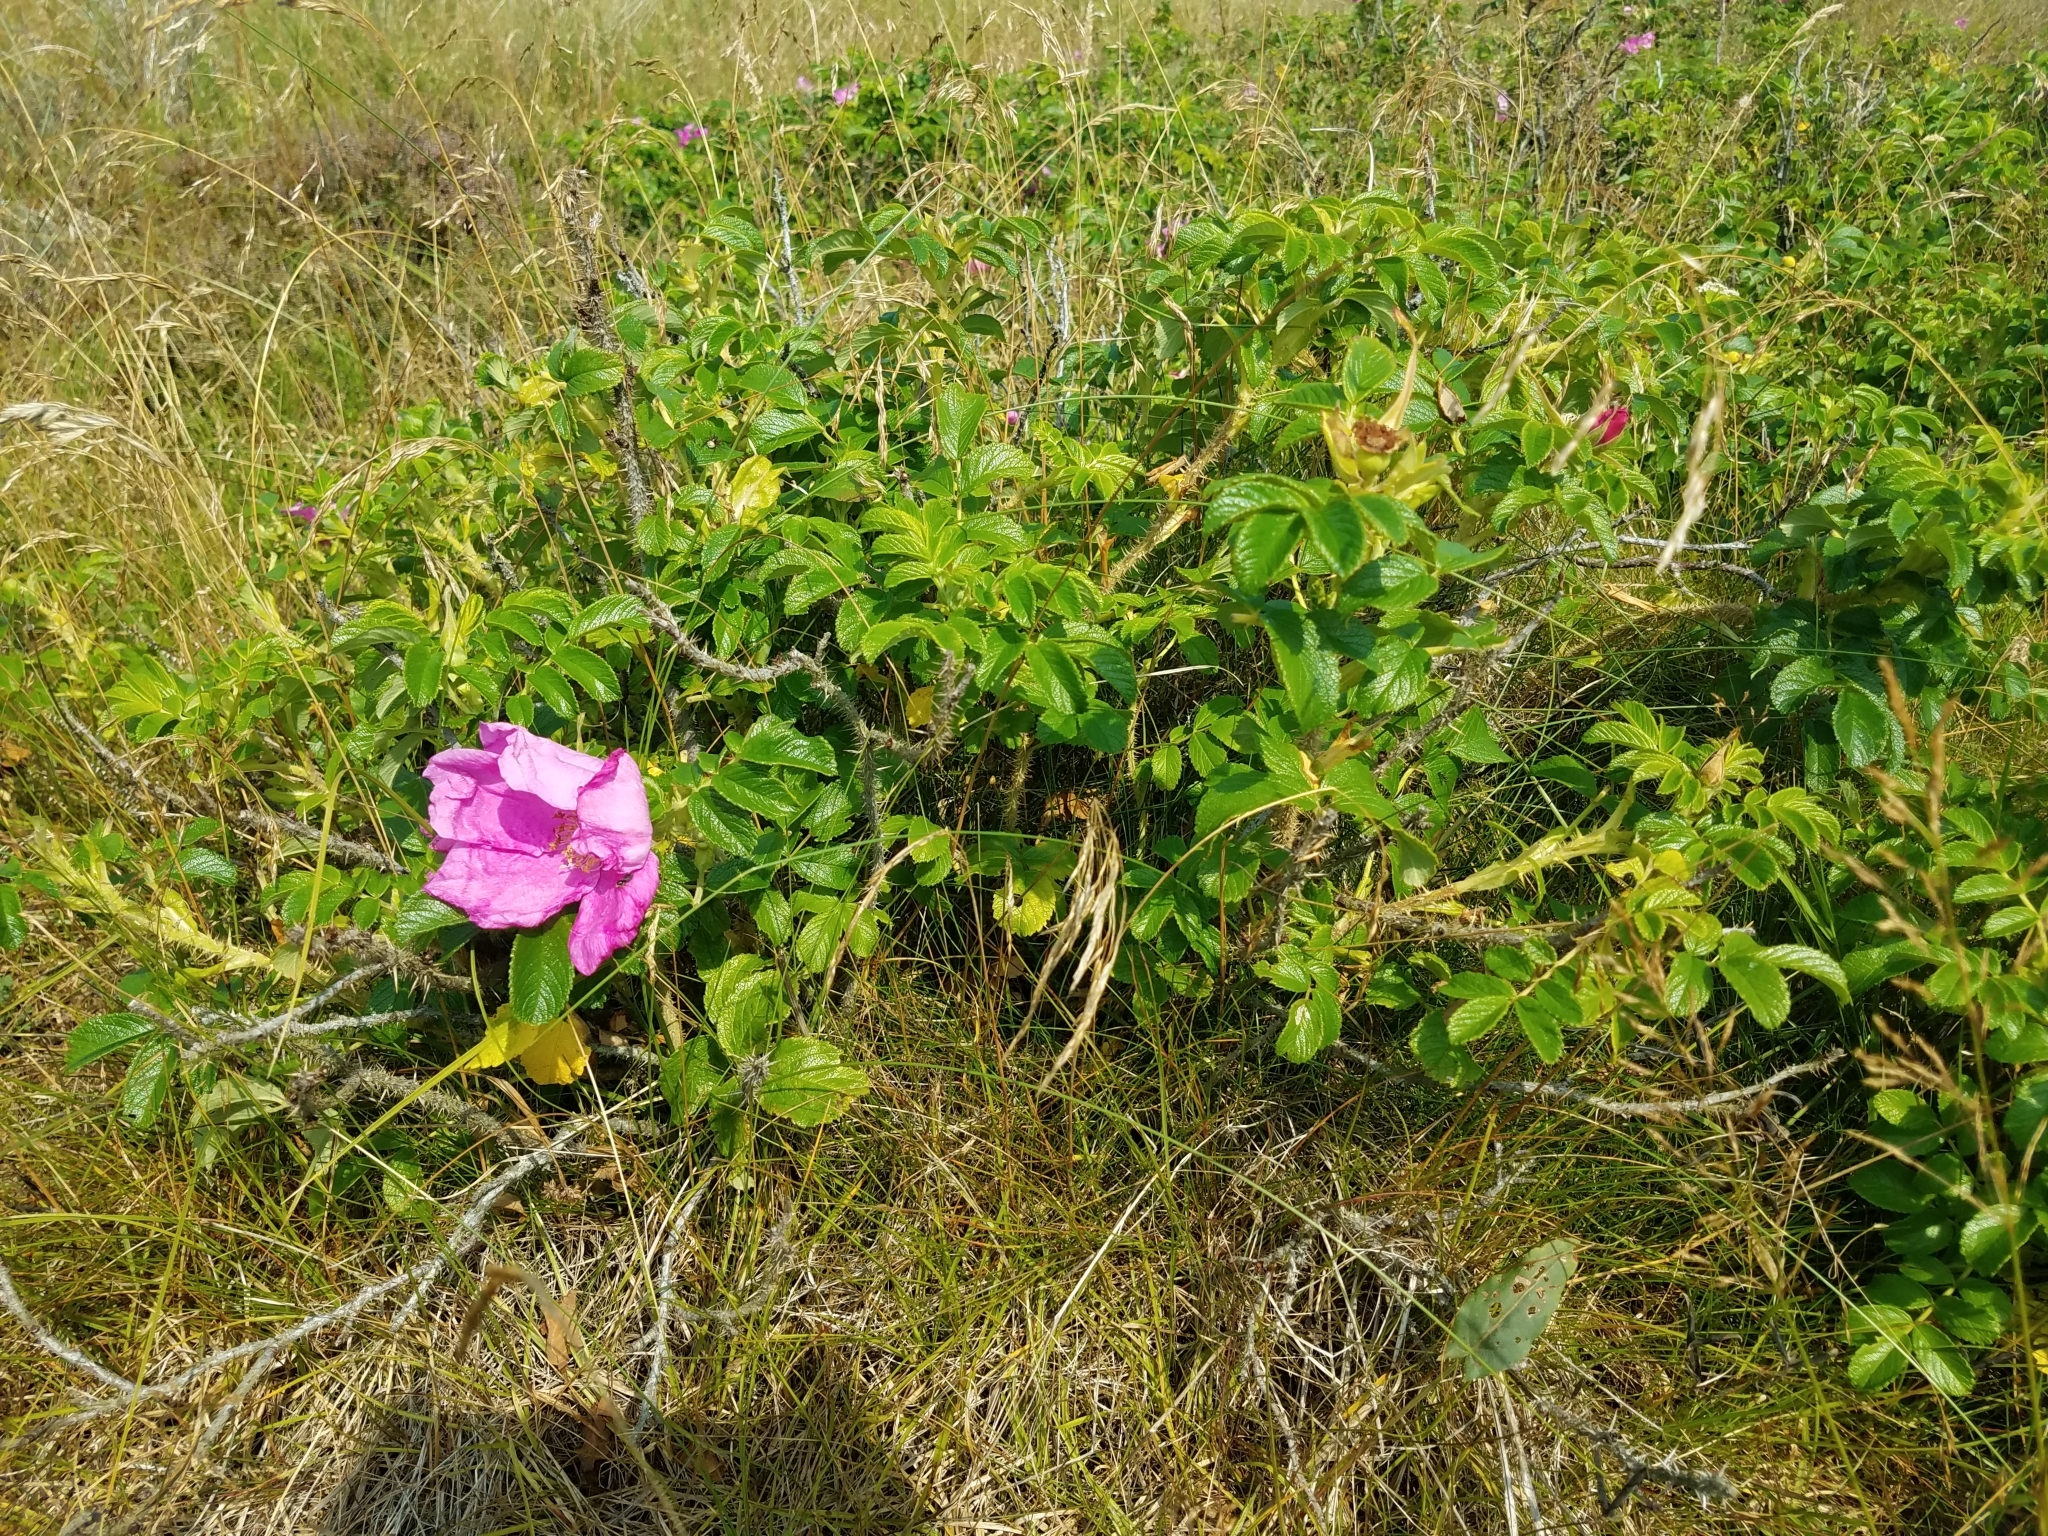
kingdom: Plantae
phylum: Tracheophyta
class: Magnoliopsida
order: Rosales
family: Rosaceae
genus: Rosa
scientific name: Rosa rugosa
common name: Japanese rose
